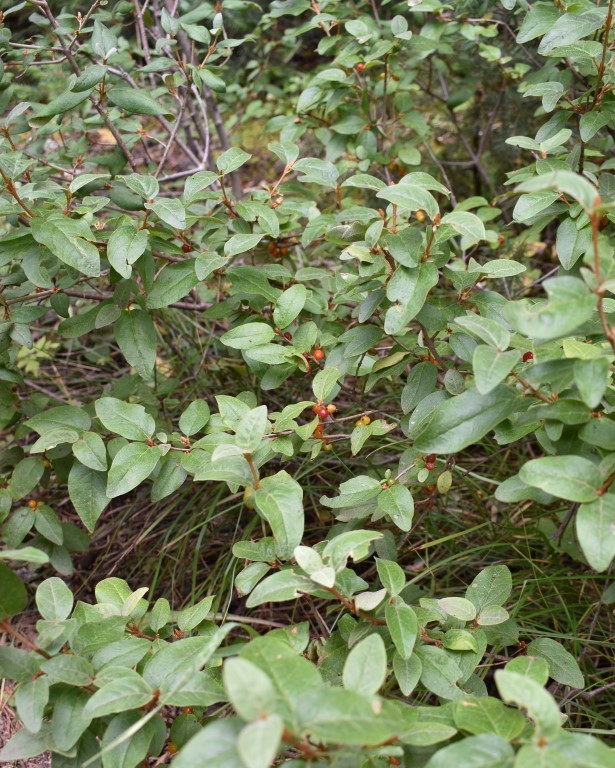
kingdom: Plantae
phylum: Tracheophyta
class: Magnoliopsida
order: Rosales
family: Elaeagnaceae
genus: Shepherdia
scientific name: Shepherdia canadensis
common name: Soapberry
